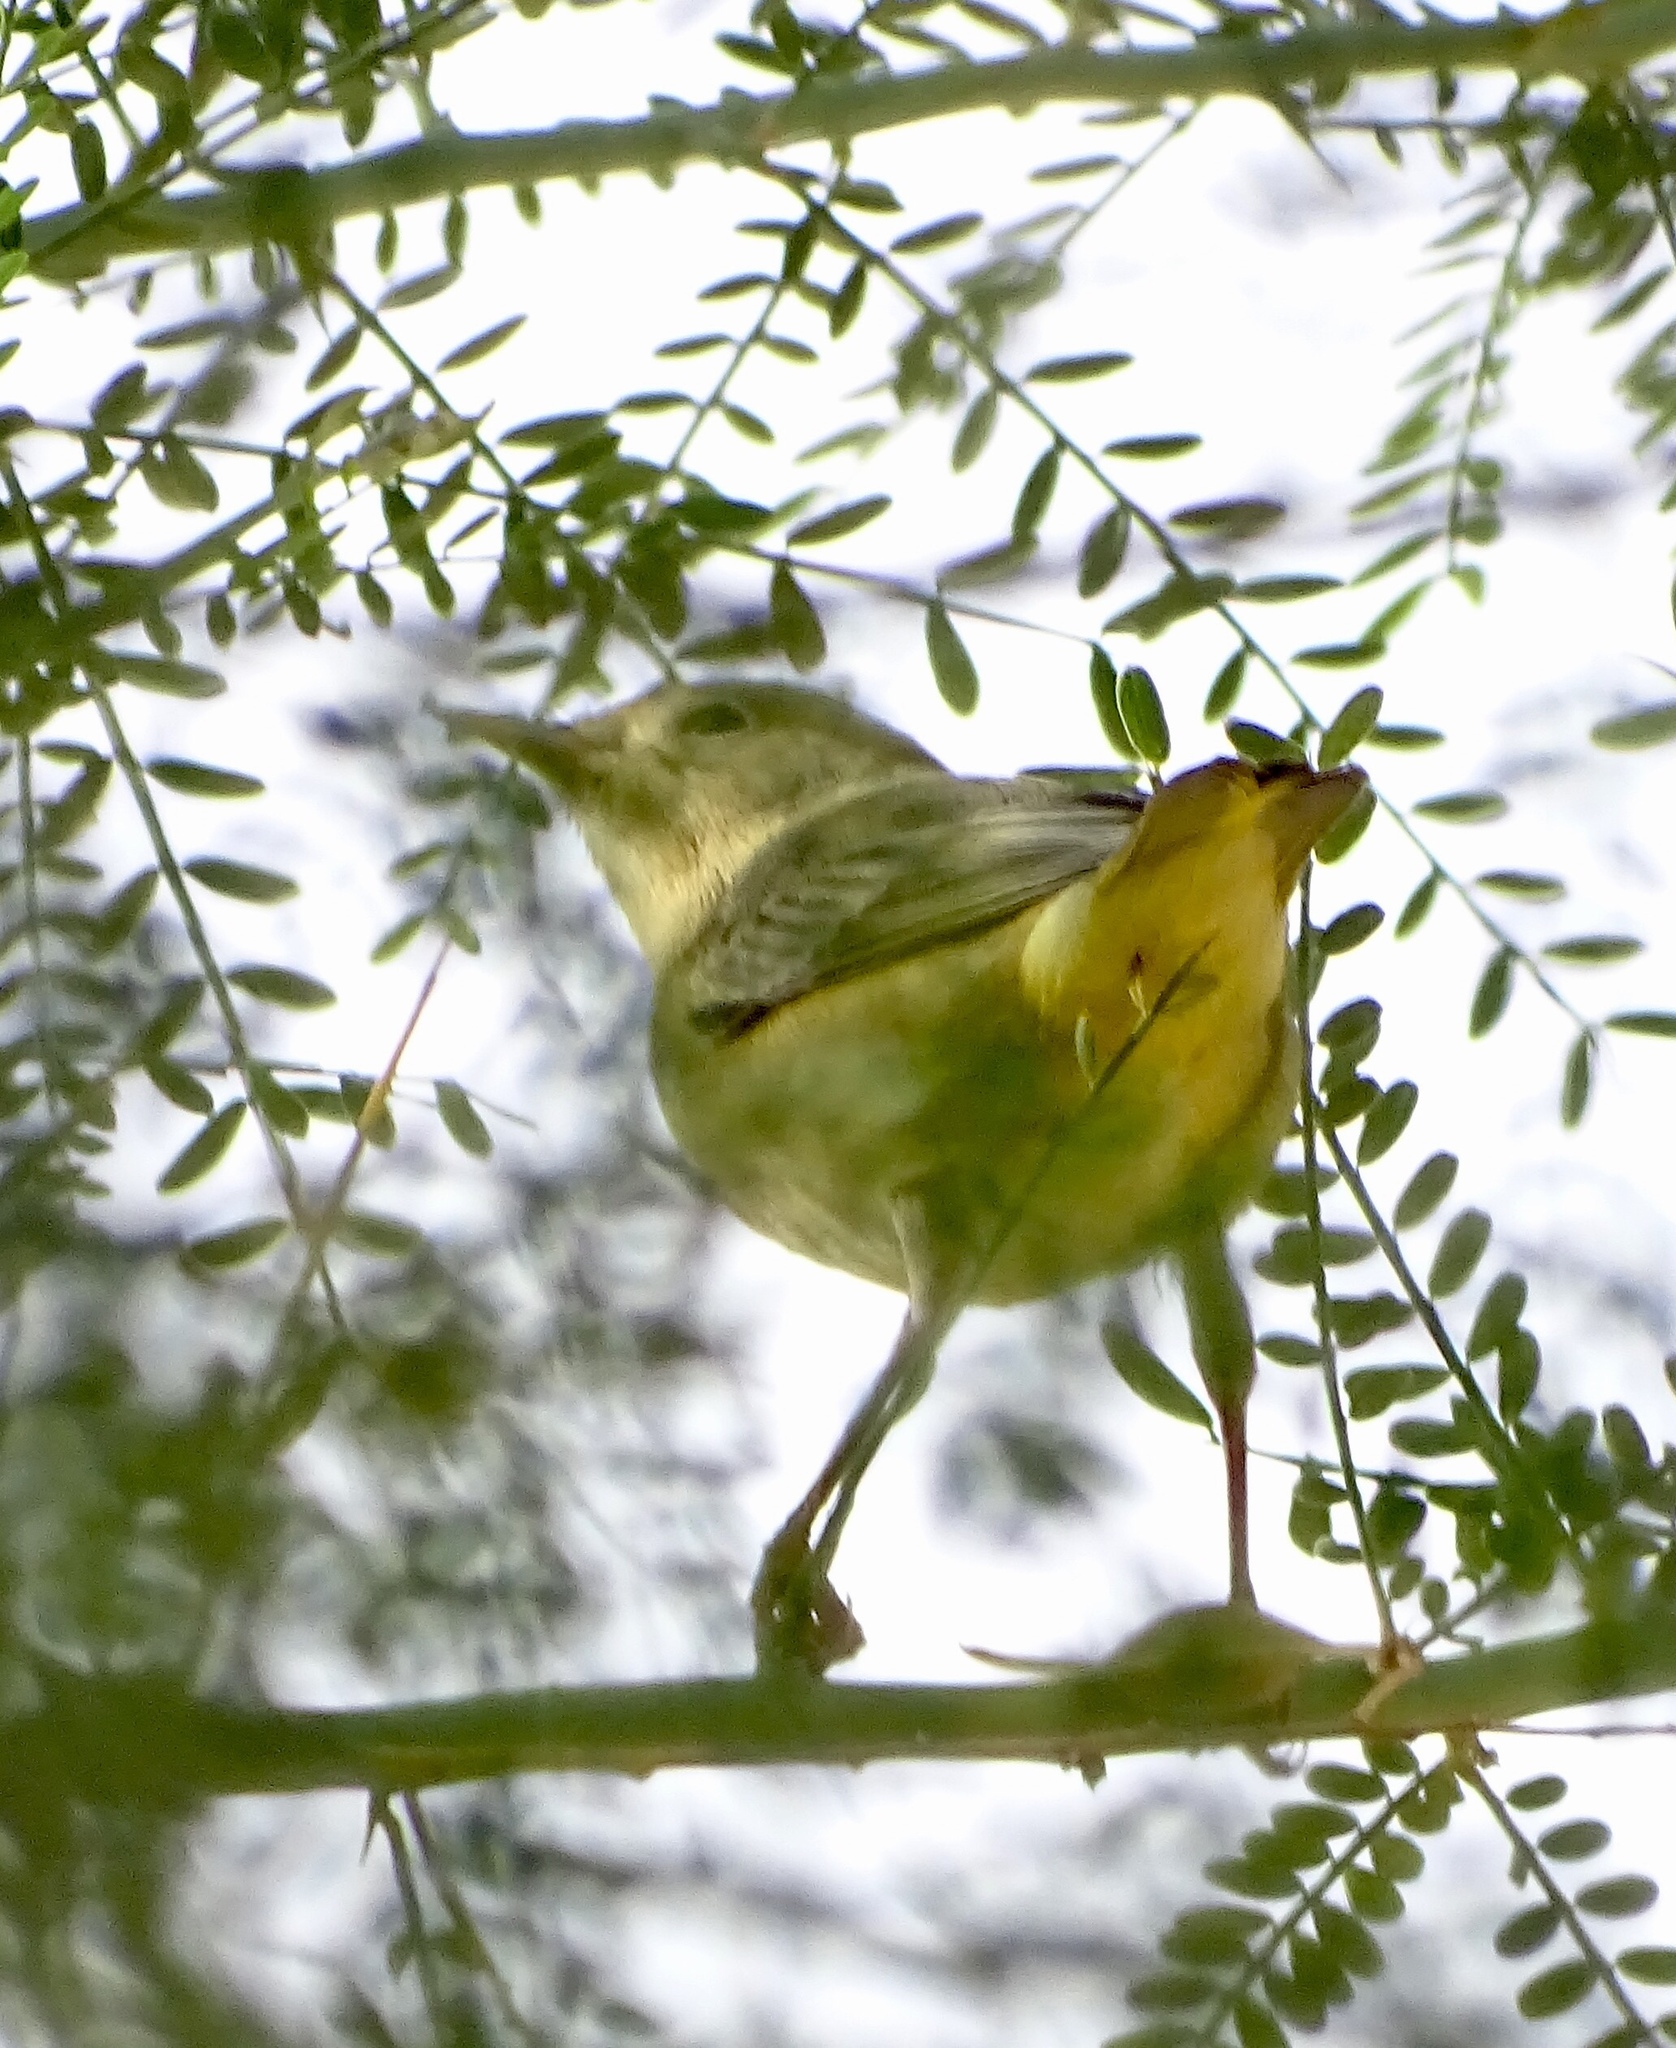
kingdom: Animalia
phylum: Chordata
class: Aves
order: Passeriformes
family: Parulidae
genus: Setophaga
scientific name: Setophaga petechia
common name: Yellow warbler
